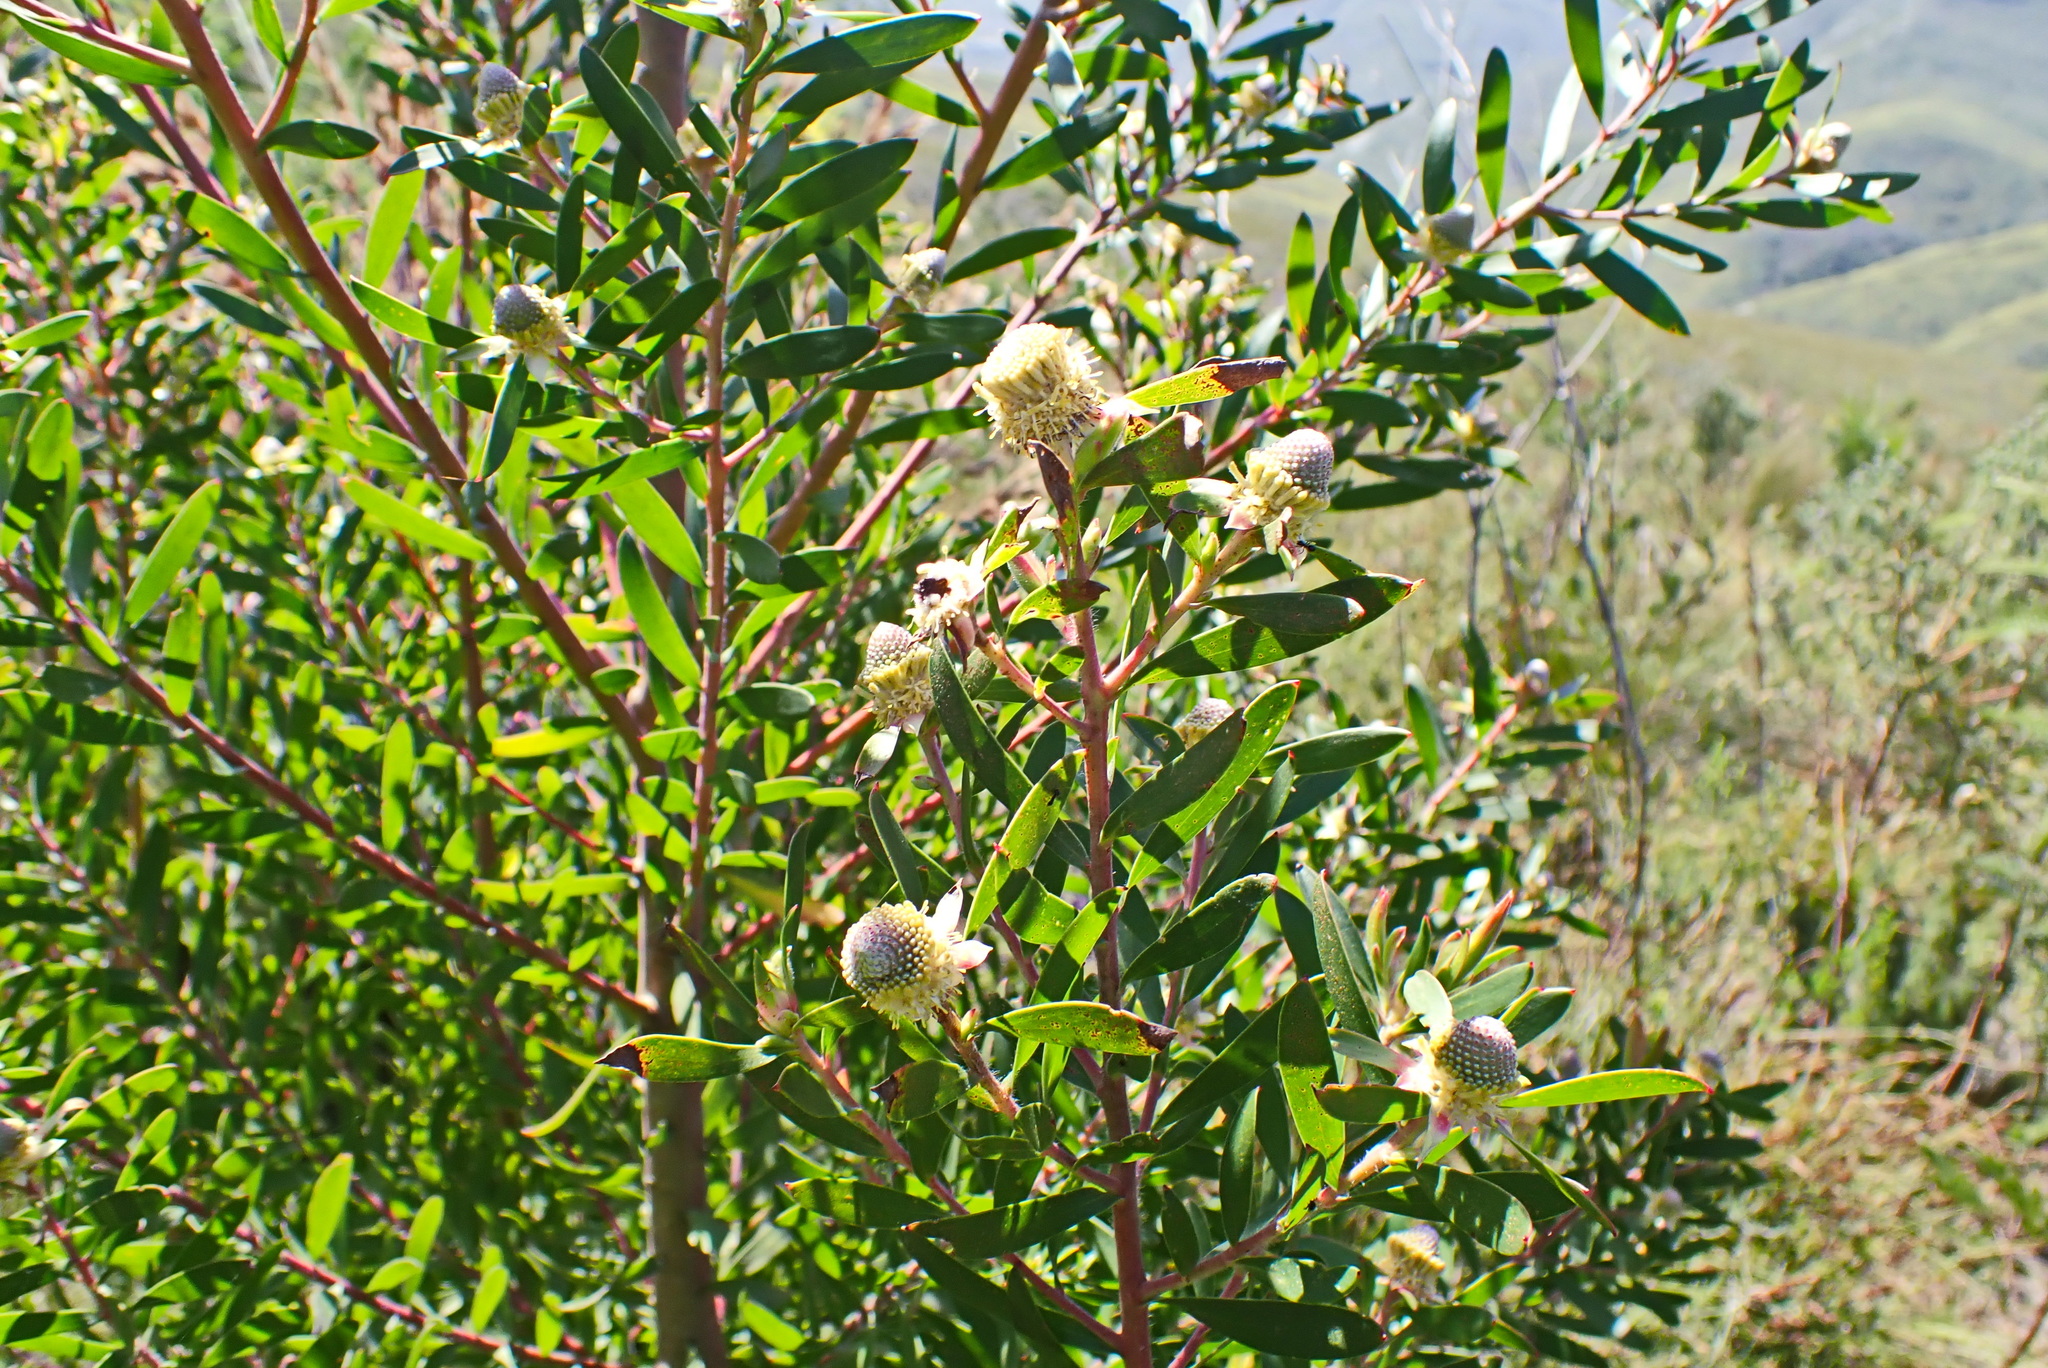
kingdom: Plantae
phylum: Tracheophyta
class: Magnoliopsida
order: Proteales
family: Proteaceae
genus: Leucadendron
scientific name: Leucadendron conicum
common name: Garden route conebush
